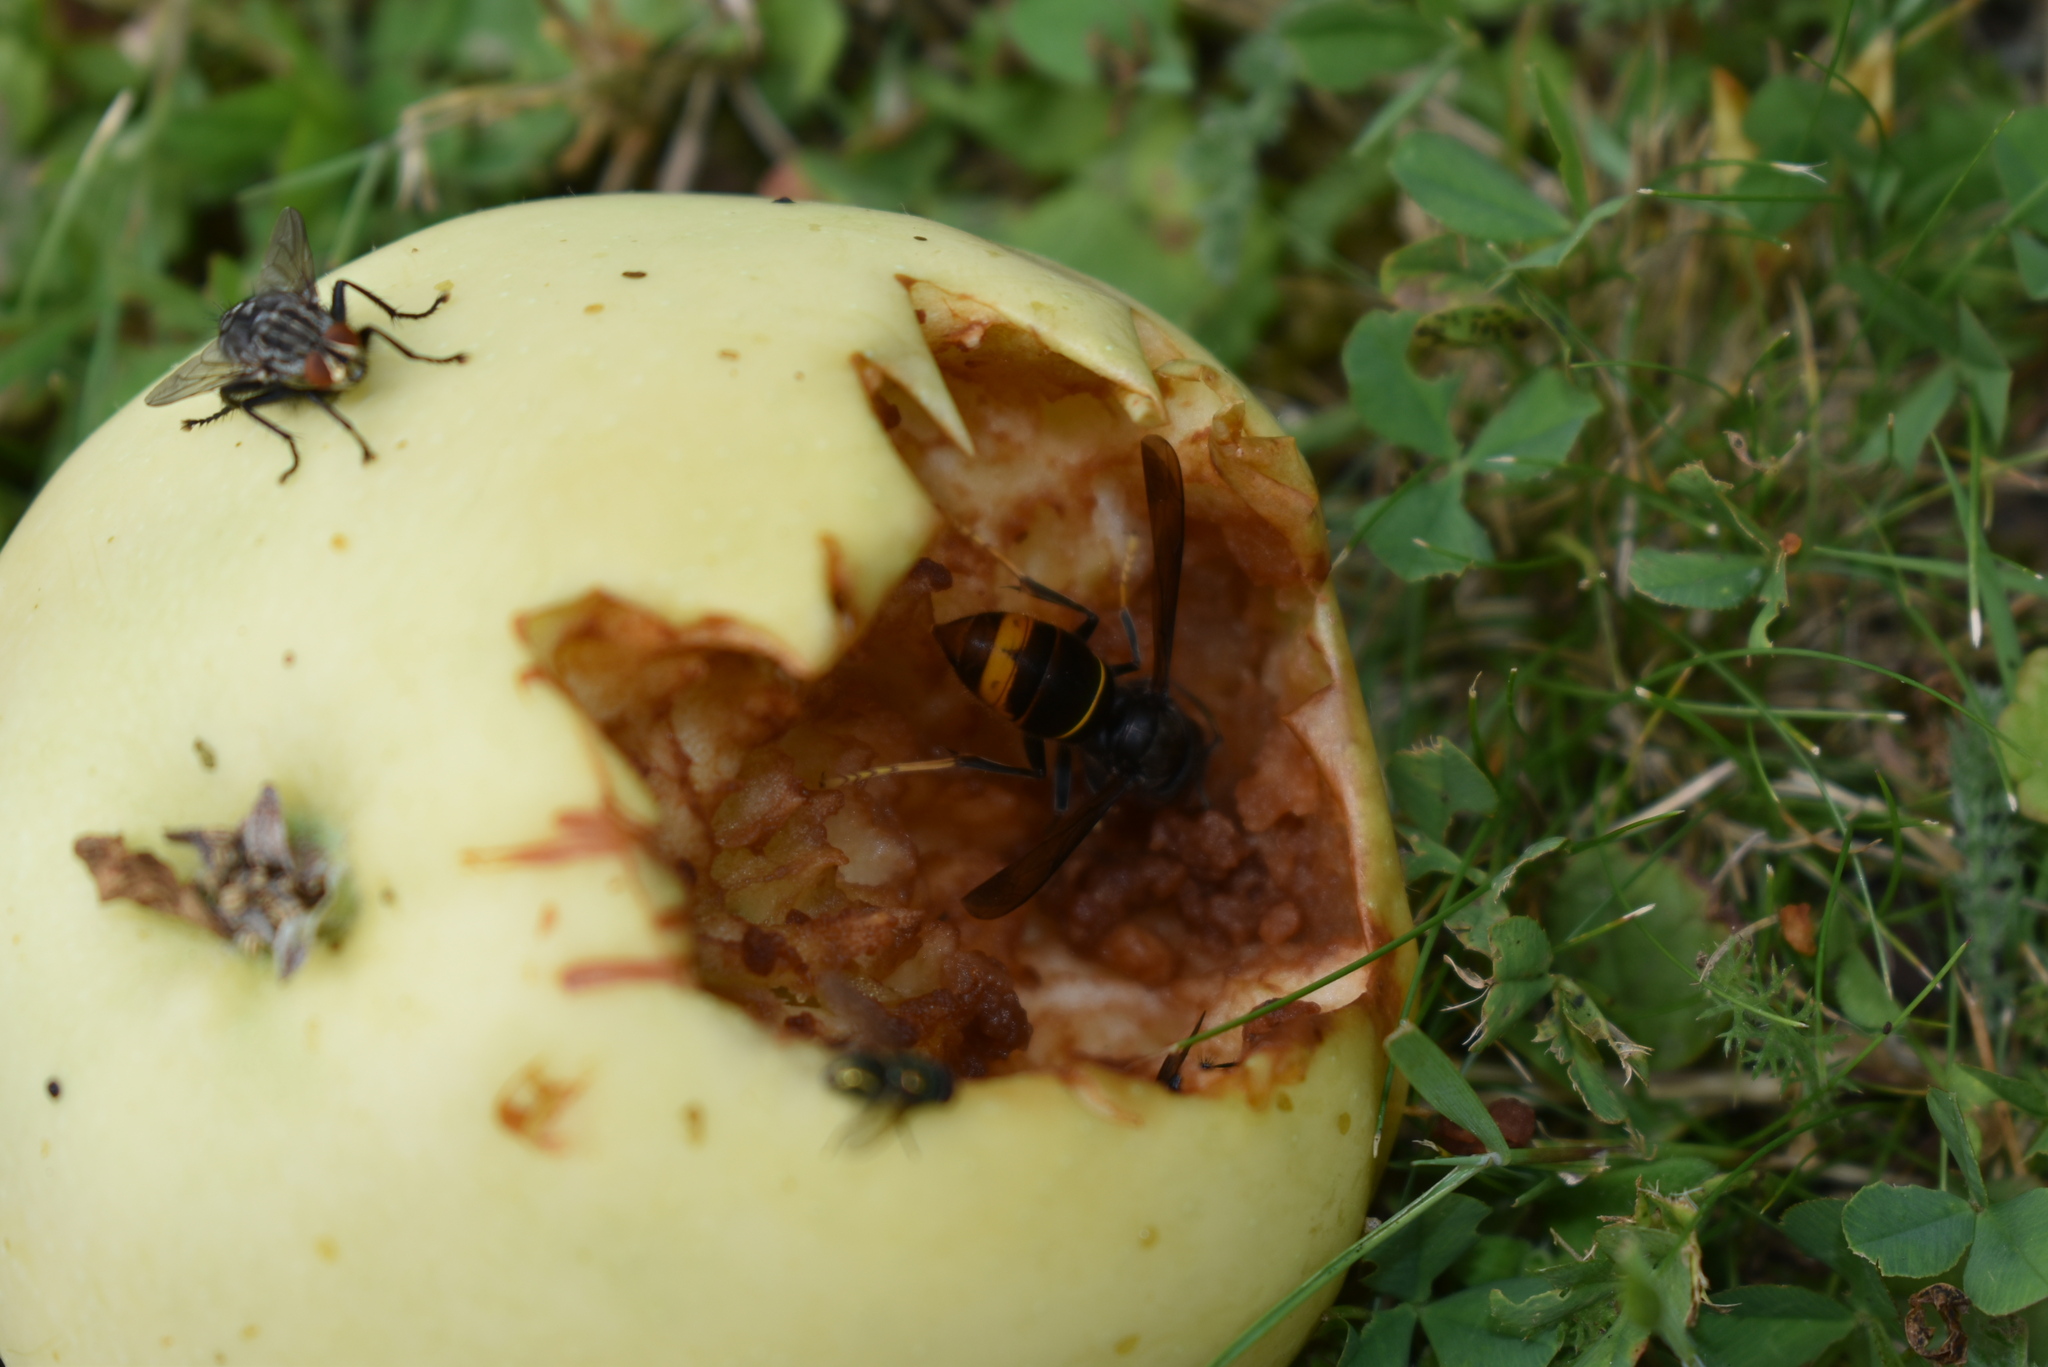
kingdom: Animalia
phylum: Arthropoda
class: Insecta
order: Hymenoptera
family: Vespidae
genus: Vespa
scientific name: Vespa velutina
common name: Asian hornet
